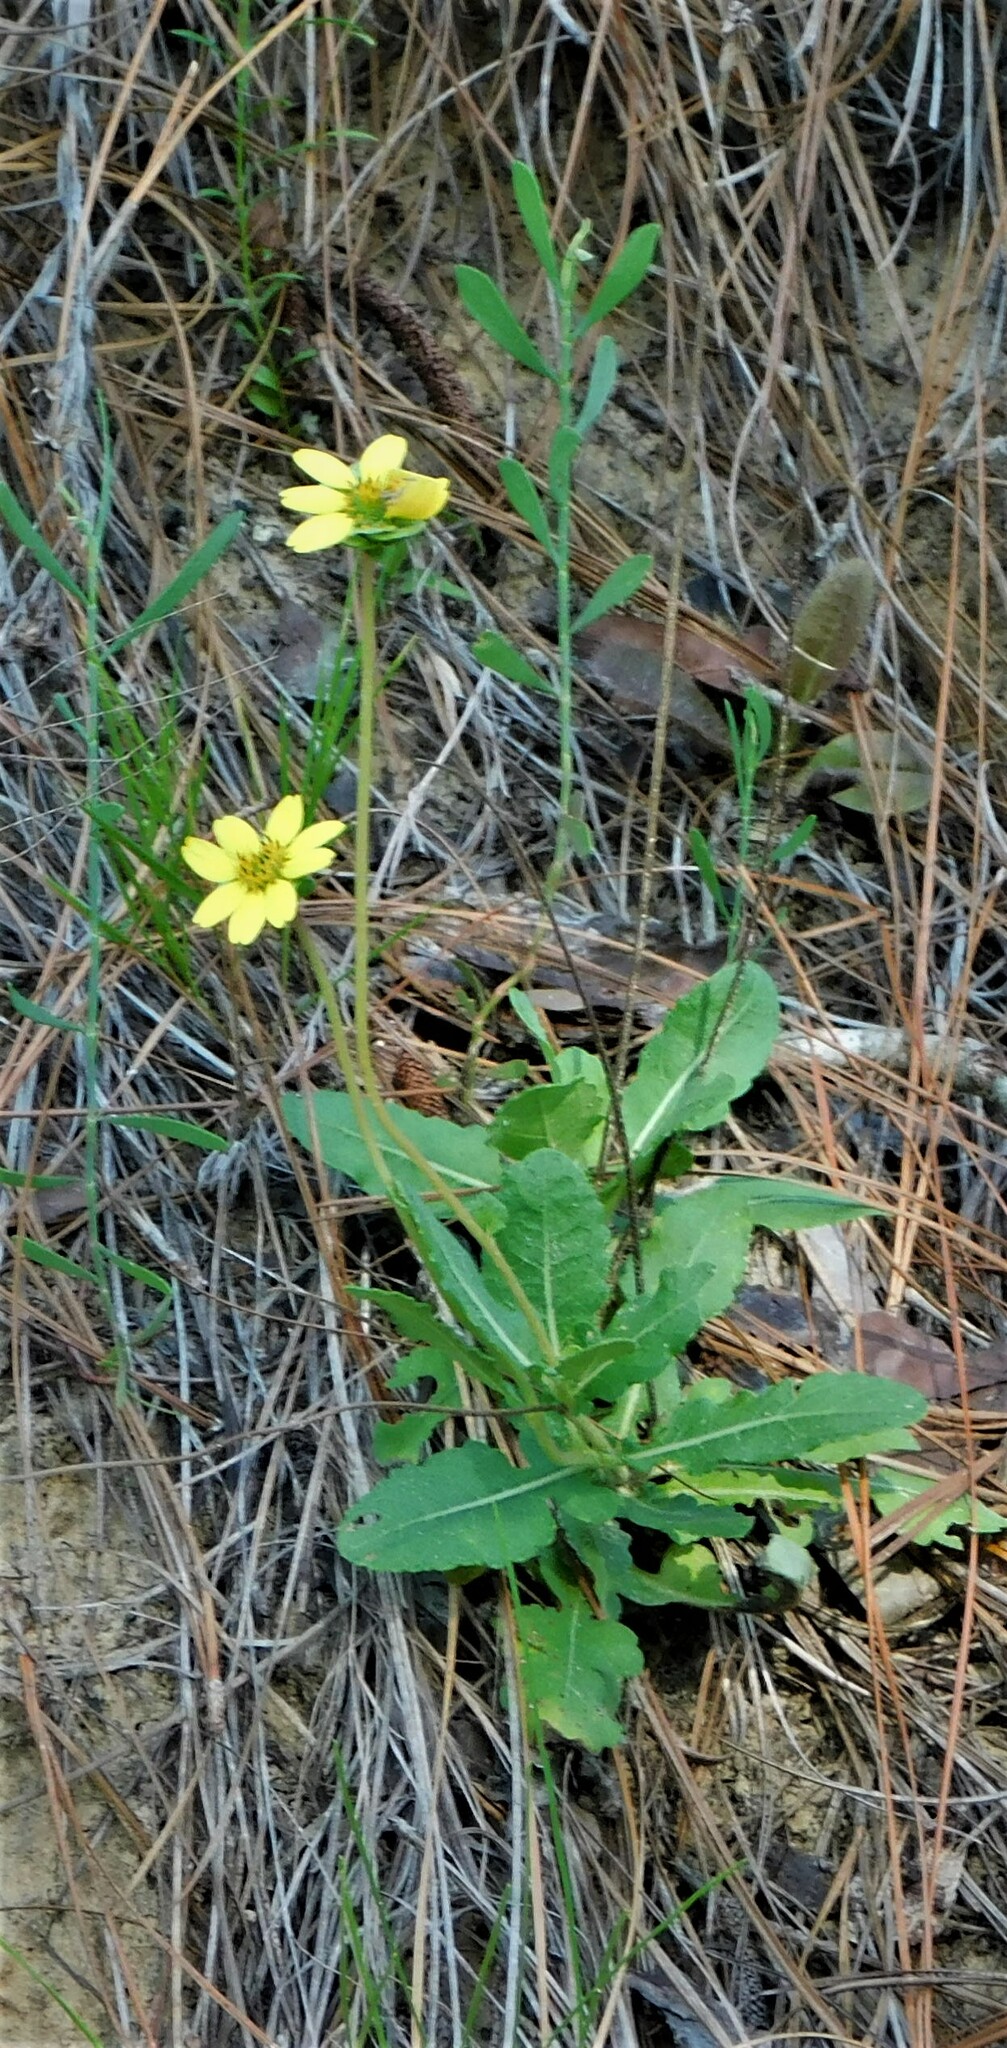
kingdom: Plantae
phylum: Tracheophyta
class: Magnoliopsida
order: Asterales
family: Asteraceae
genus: Berlandiera
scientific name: Berlandiera subacaulis
